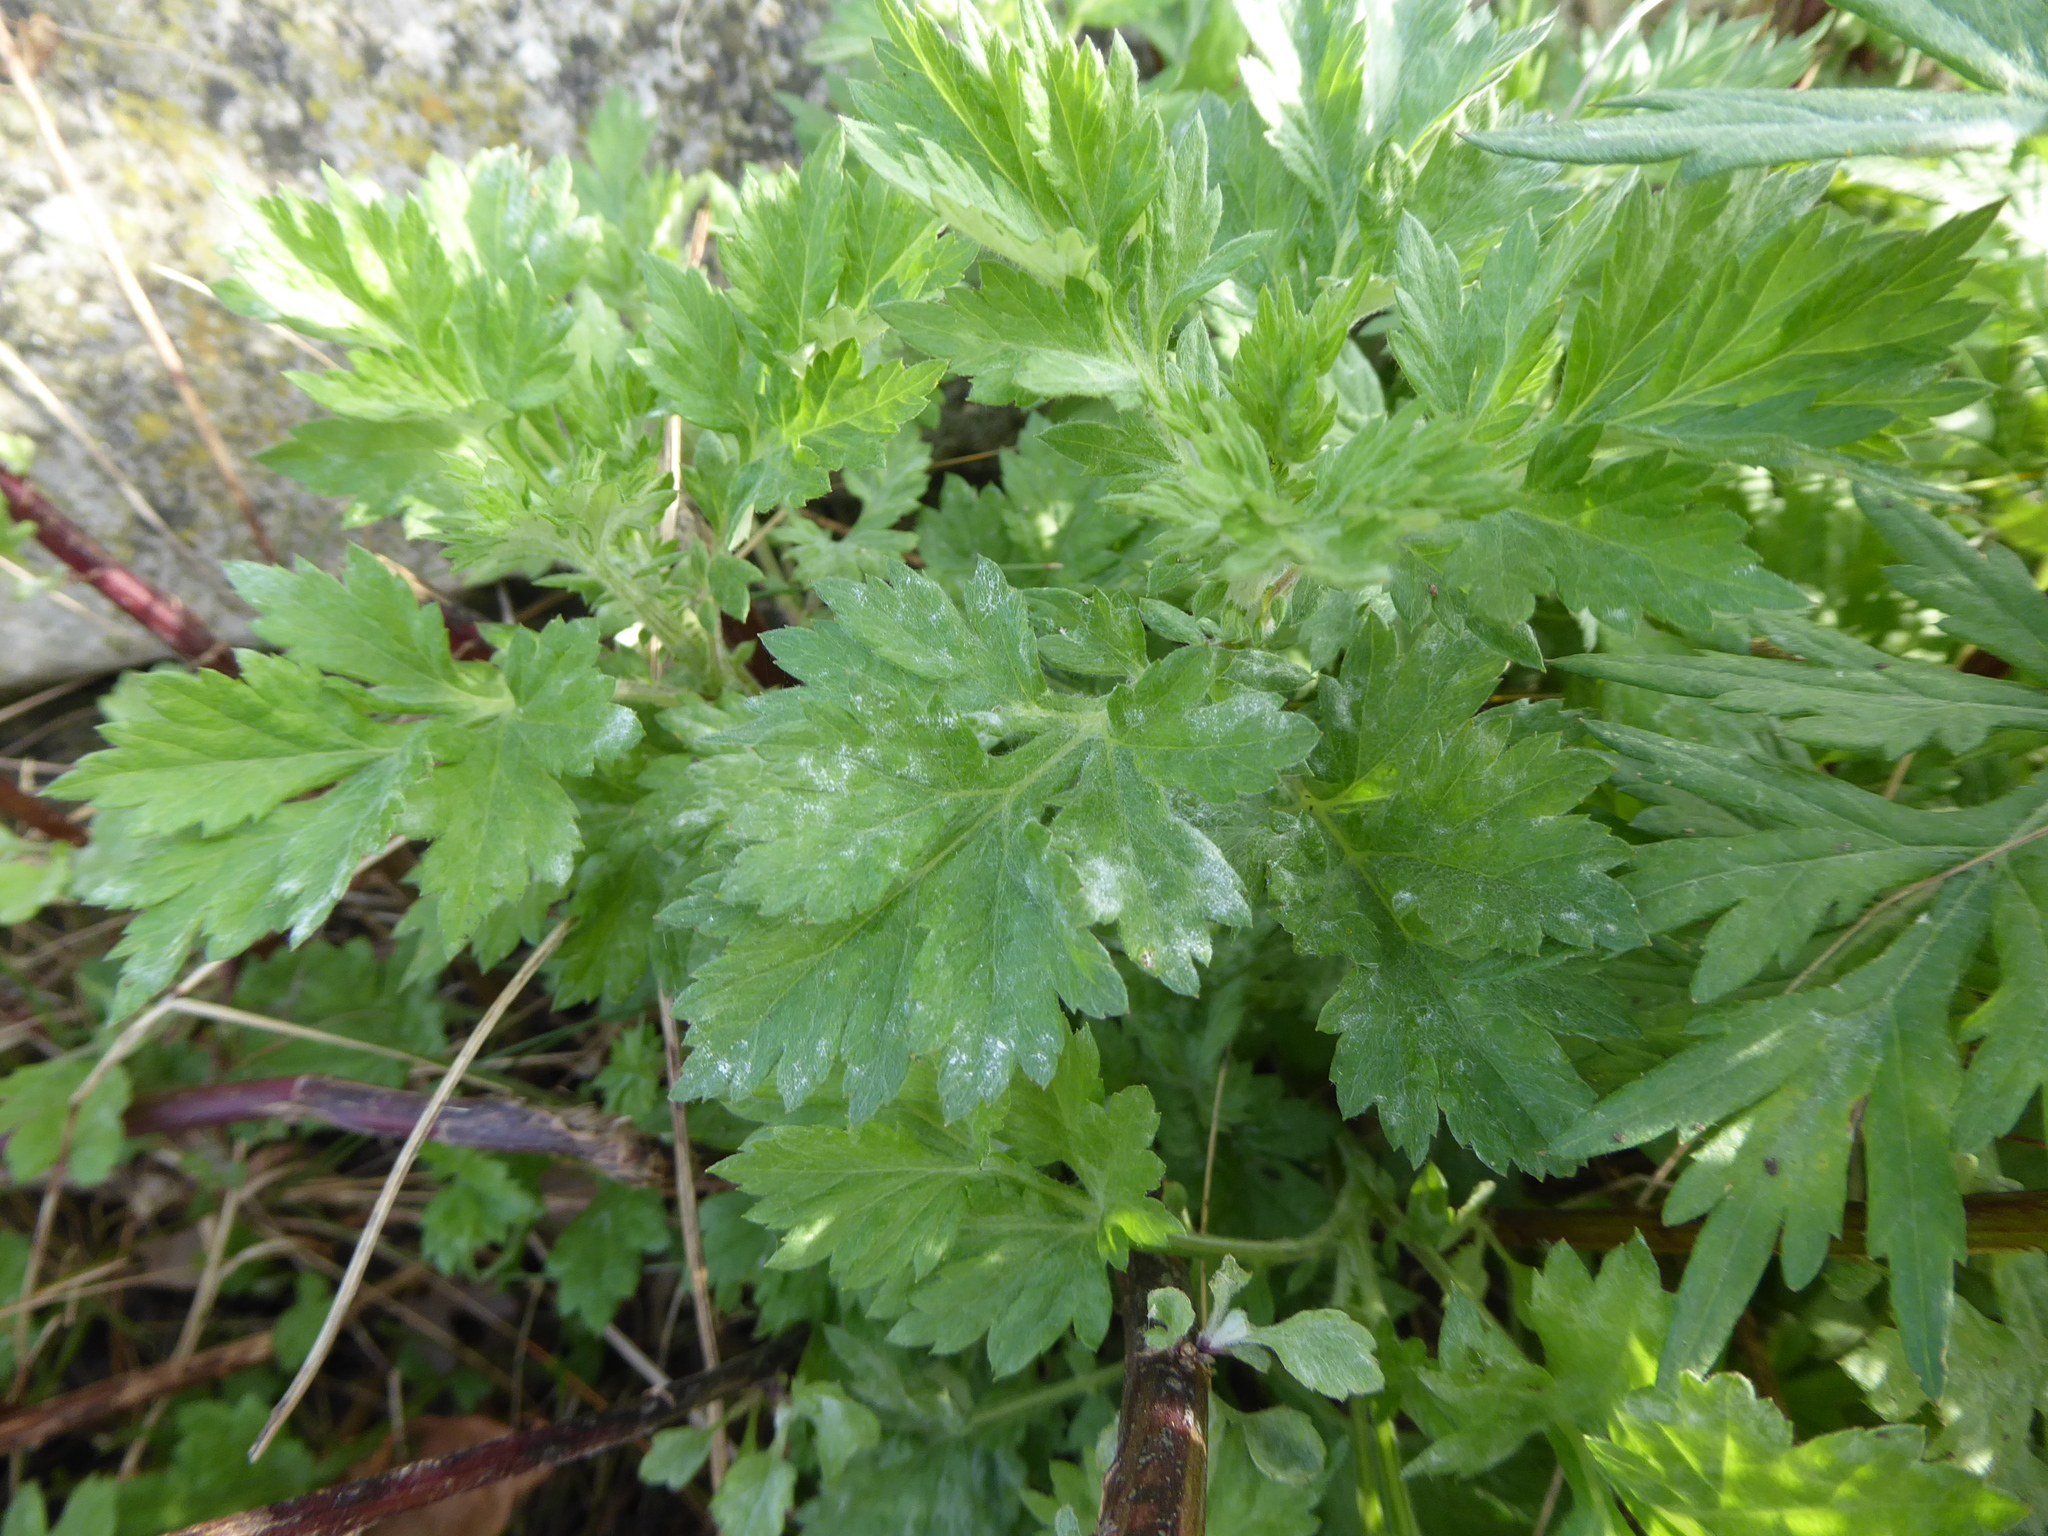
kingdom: Fungi
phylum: Ascomycota
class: Leotiomycetes
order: Helotiales
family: Erysiphaceae
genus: Golovinomyces
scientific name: Golovinomyces artemisiae
